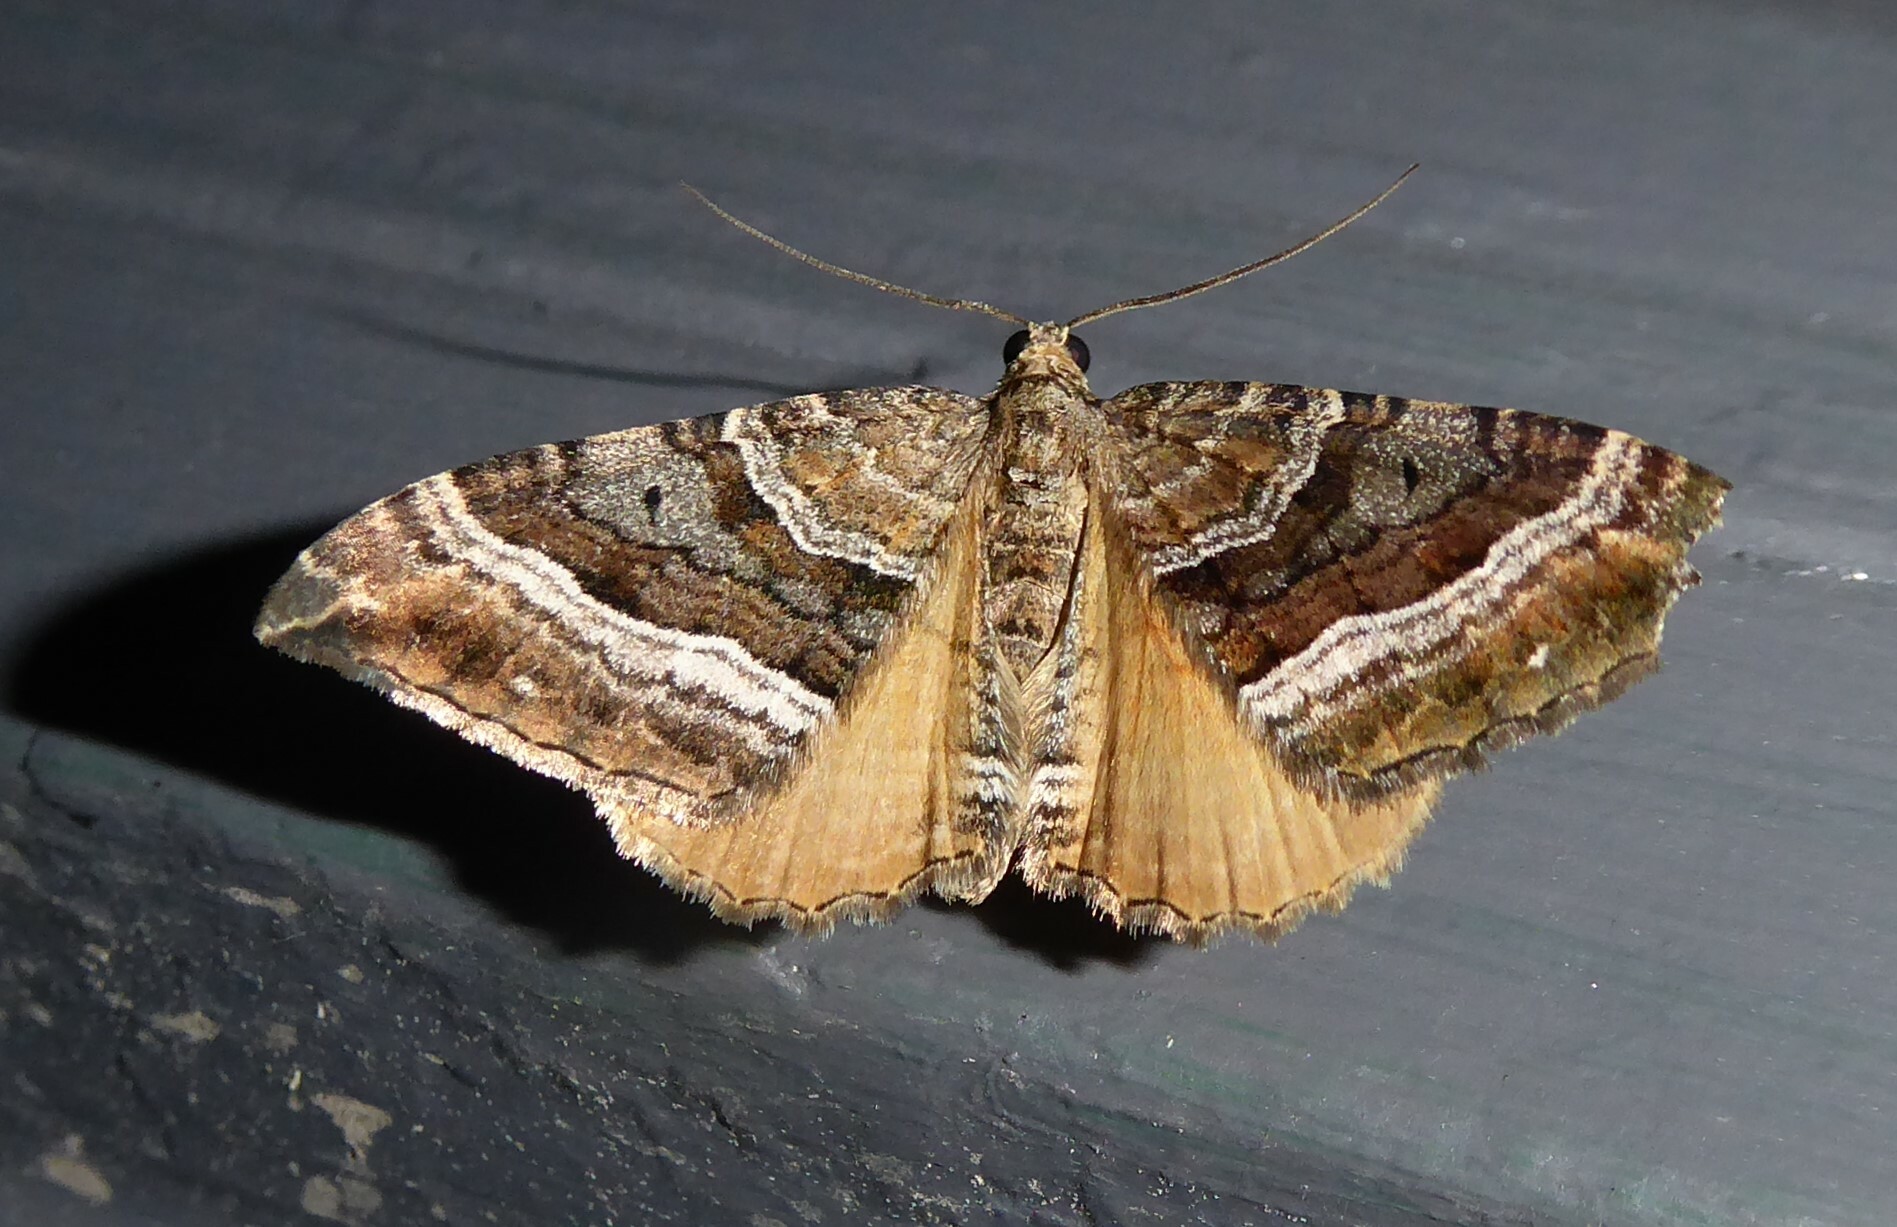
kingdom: Animalia
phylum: Arthropoda
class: Insecta
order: Lepidoptera
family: Geometridae
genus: Hydriomena
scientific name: Hydriomena deltoidata
